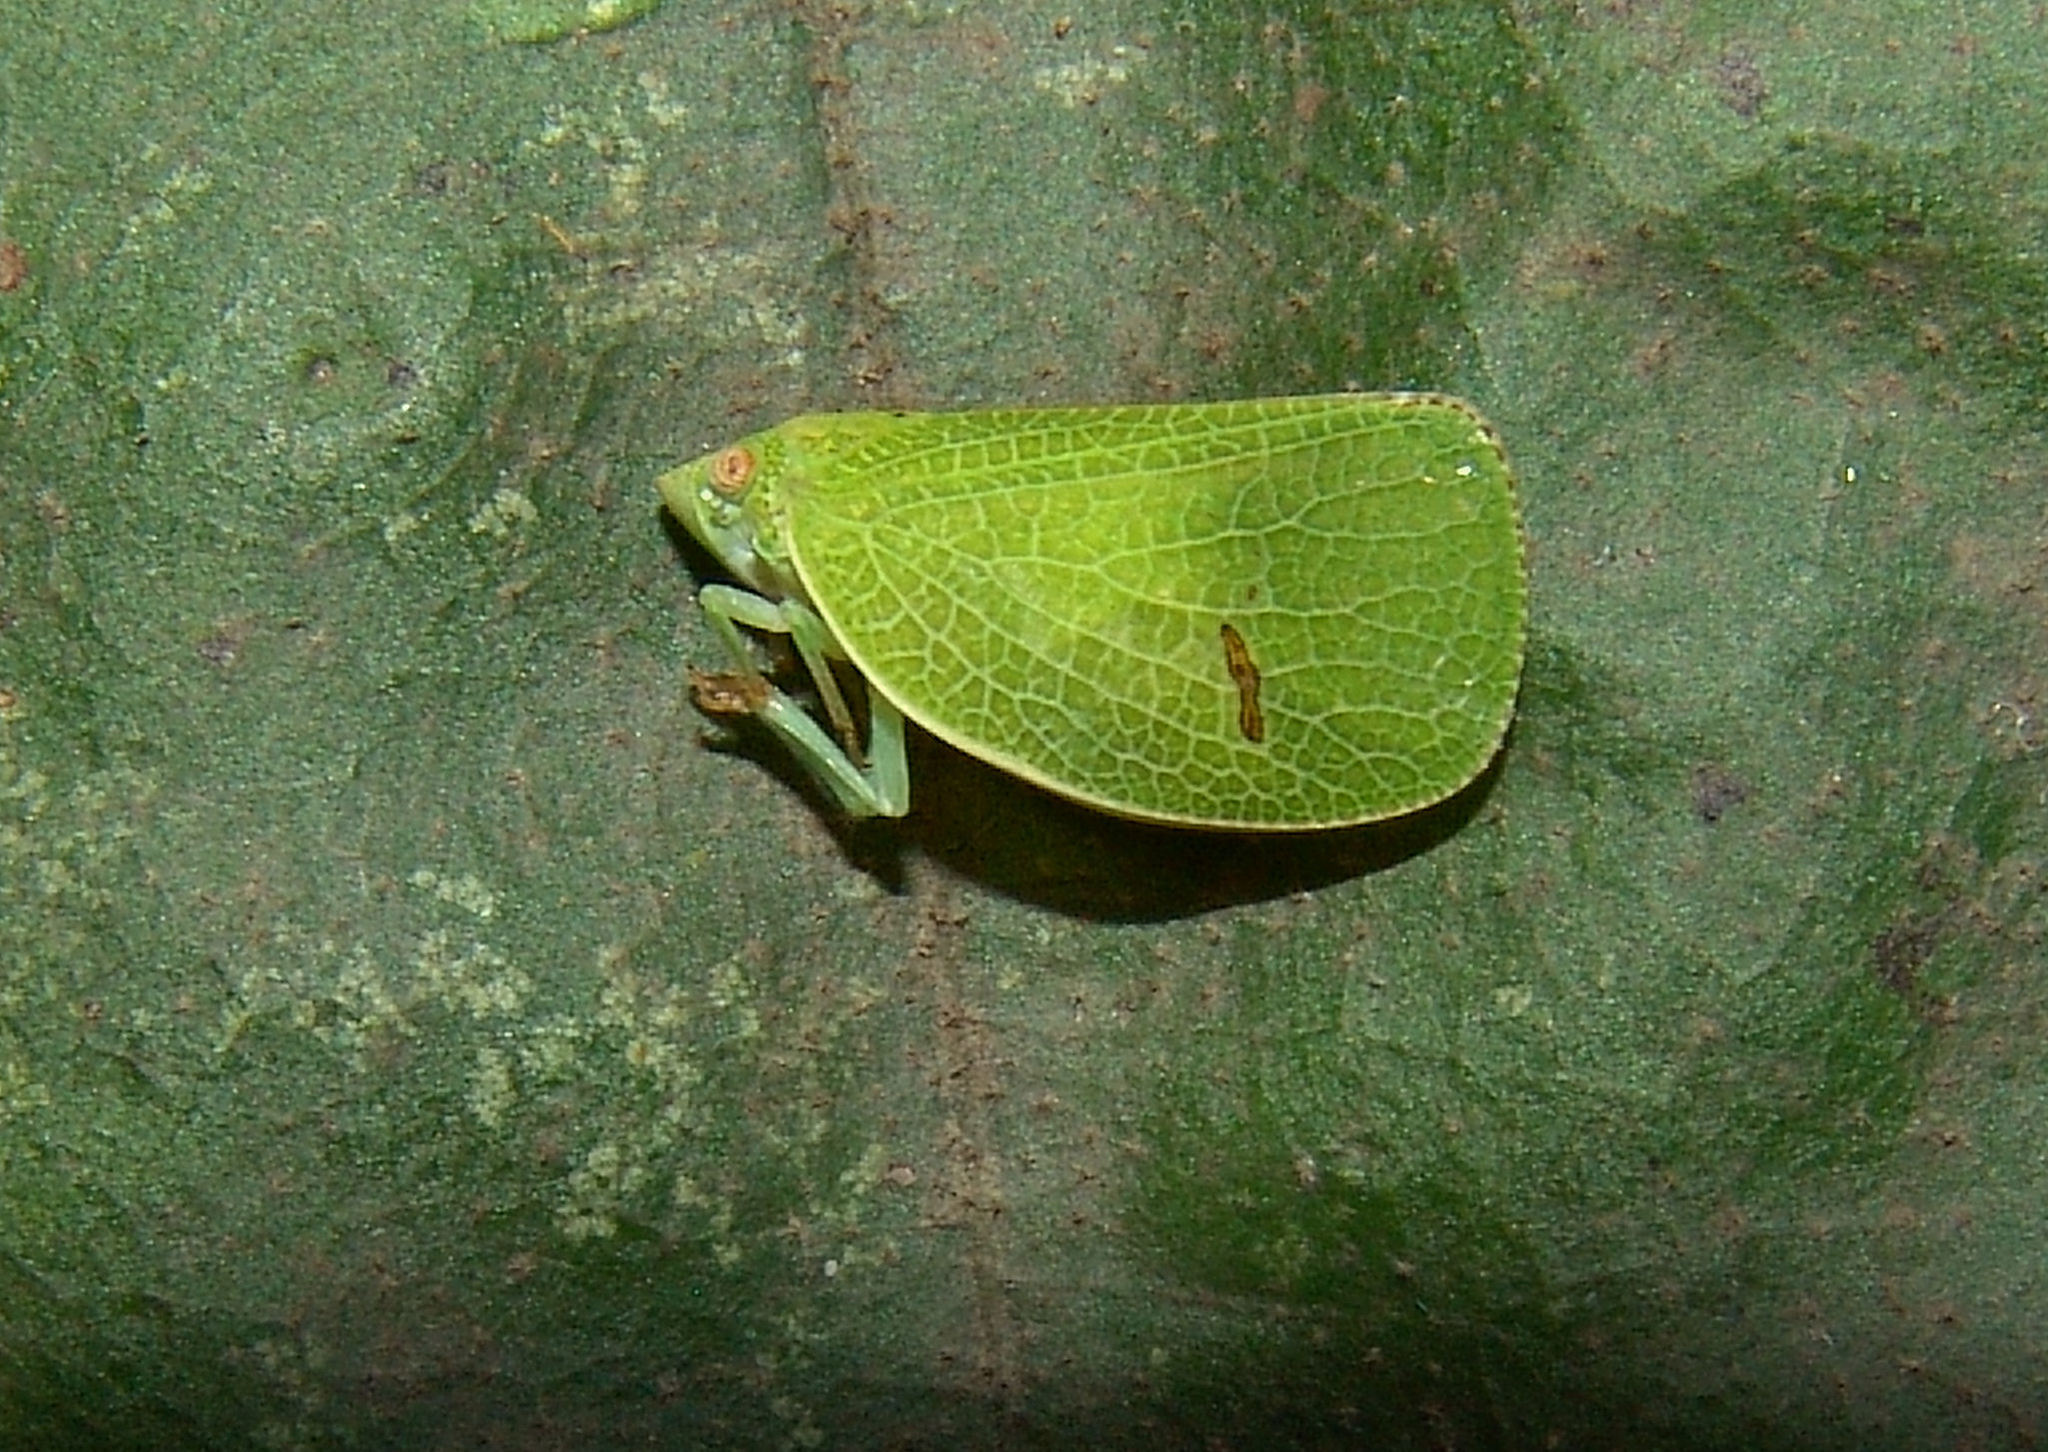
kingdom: Animalia
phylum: Arthropoda
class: Insecta
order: Hemiptera
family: Acanaloniidae
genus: Acanalonia
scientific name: Acanalonia conica
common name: Green cone-headed planthopper
